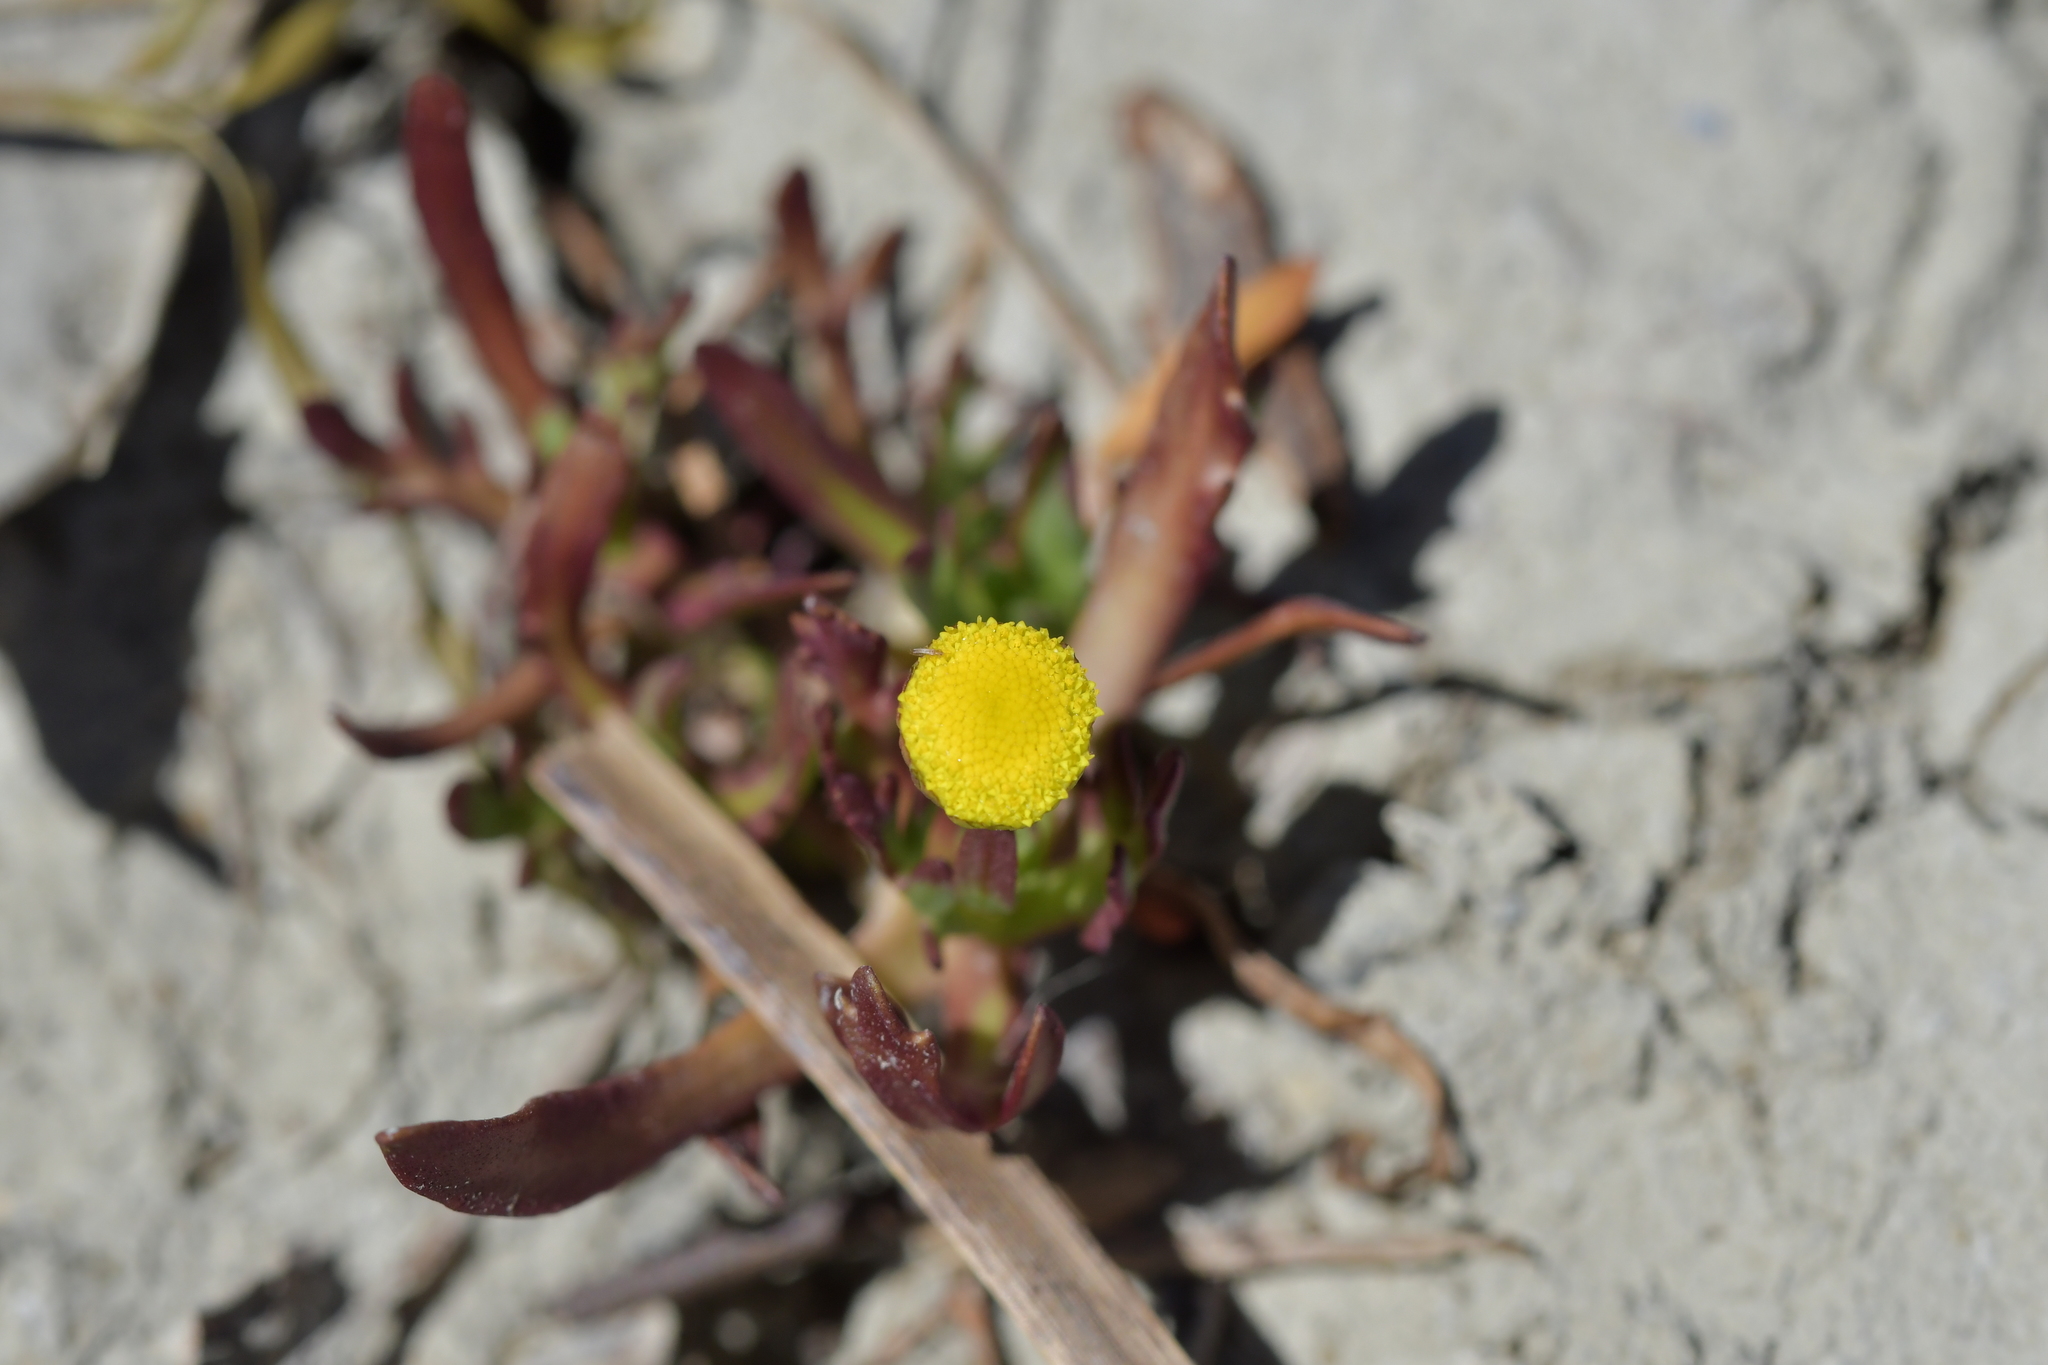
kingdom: Plantae
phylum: Tracheophyta
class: Magnoliopsida
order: Asterales
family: Asteraceae
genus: Cotula
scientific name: Cotula coronopifolia
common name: Buttonweed
